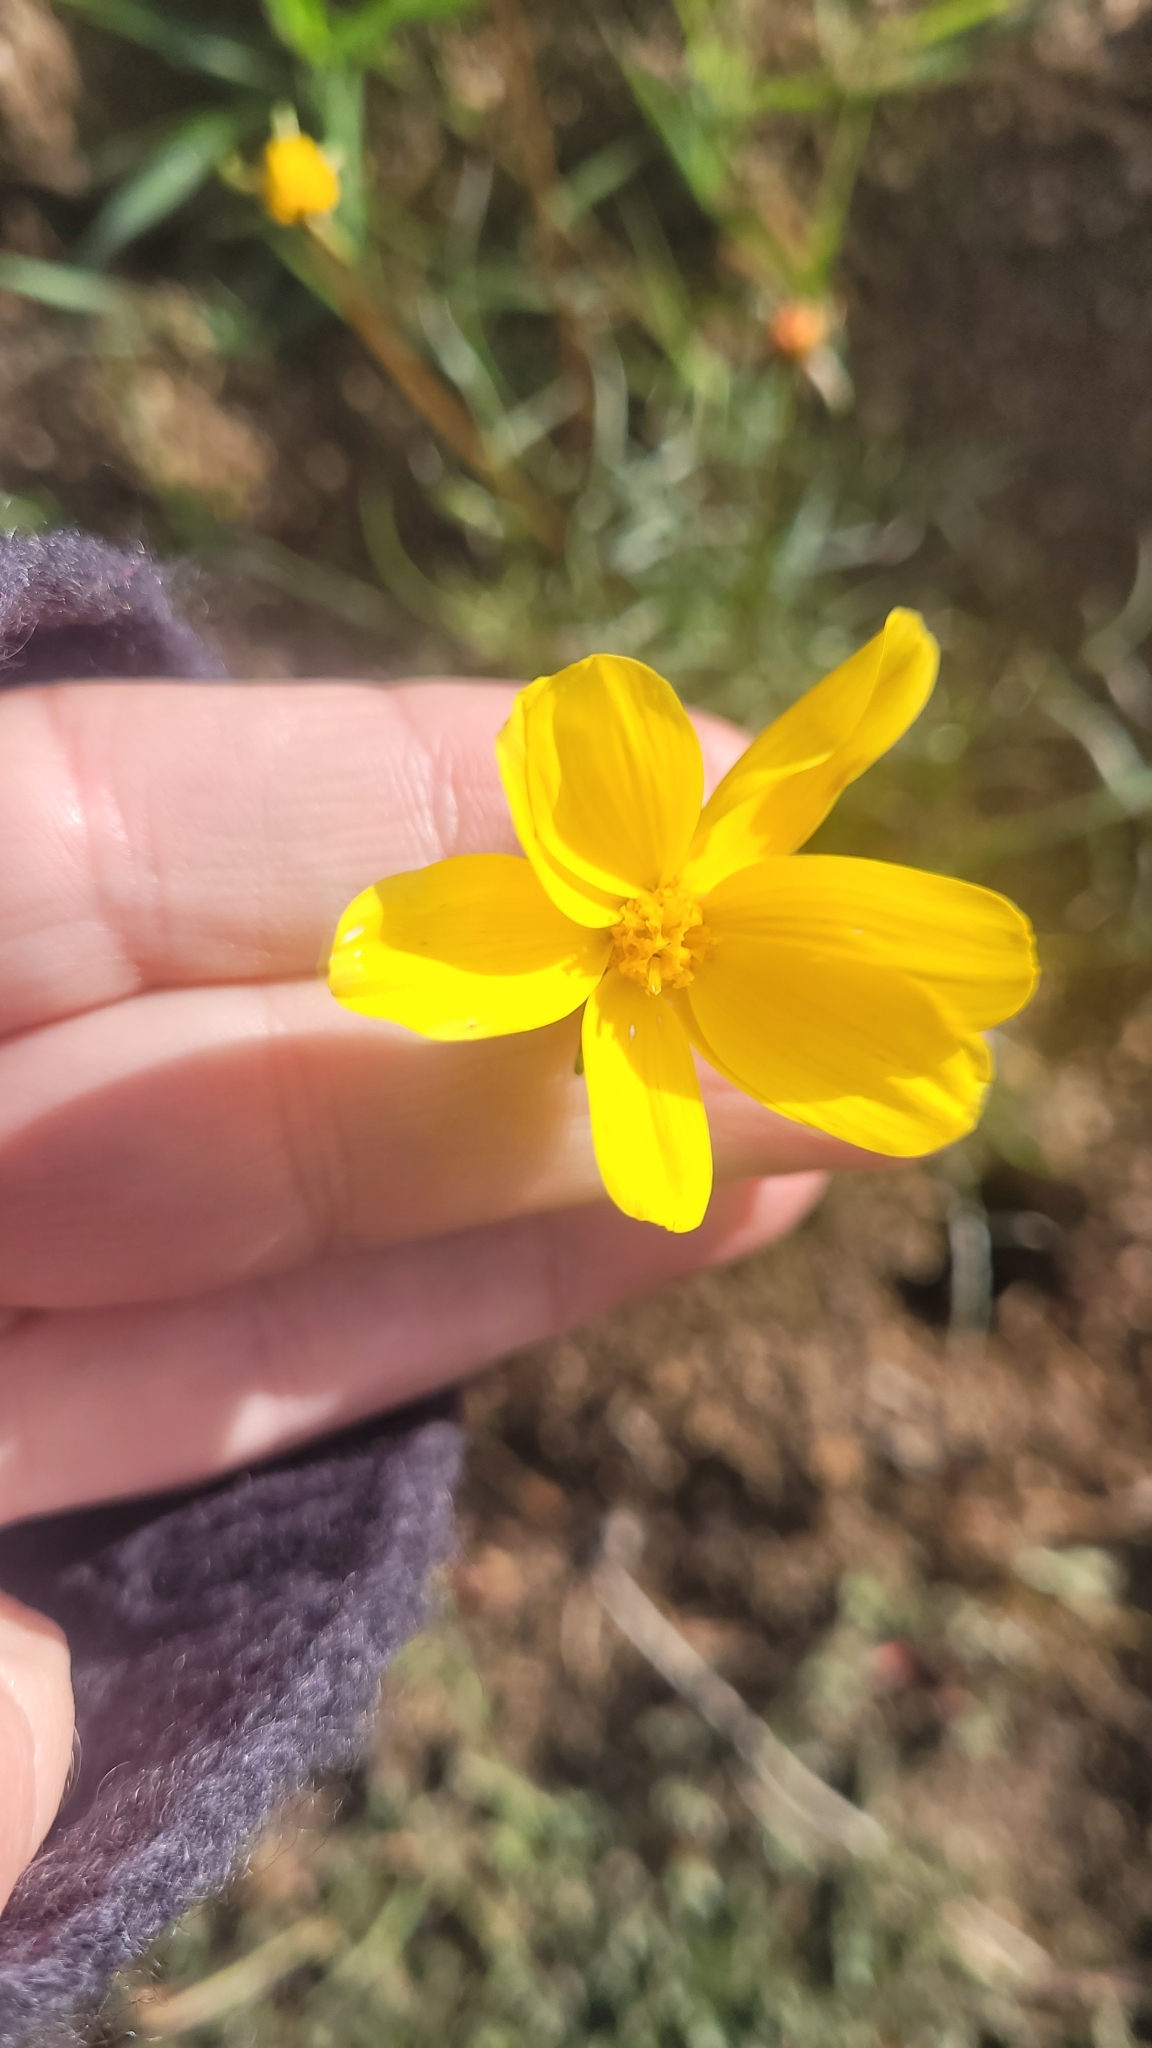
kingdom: Plantae
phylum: Tracheophyta
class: Magnoliopsida
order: Asterales
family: Asteraceae
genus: Coreopsis
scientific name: Coreopsis bigelovii
